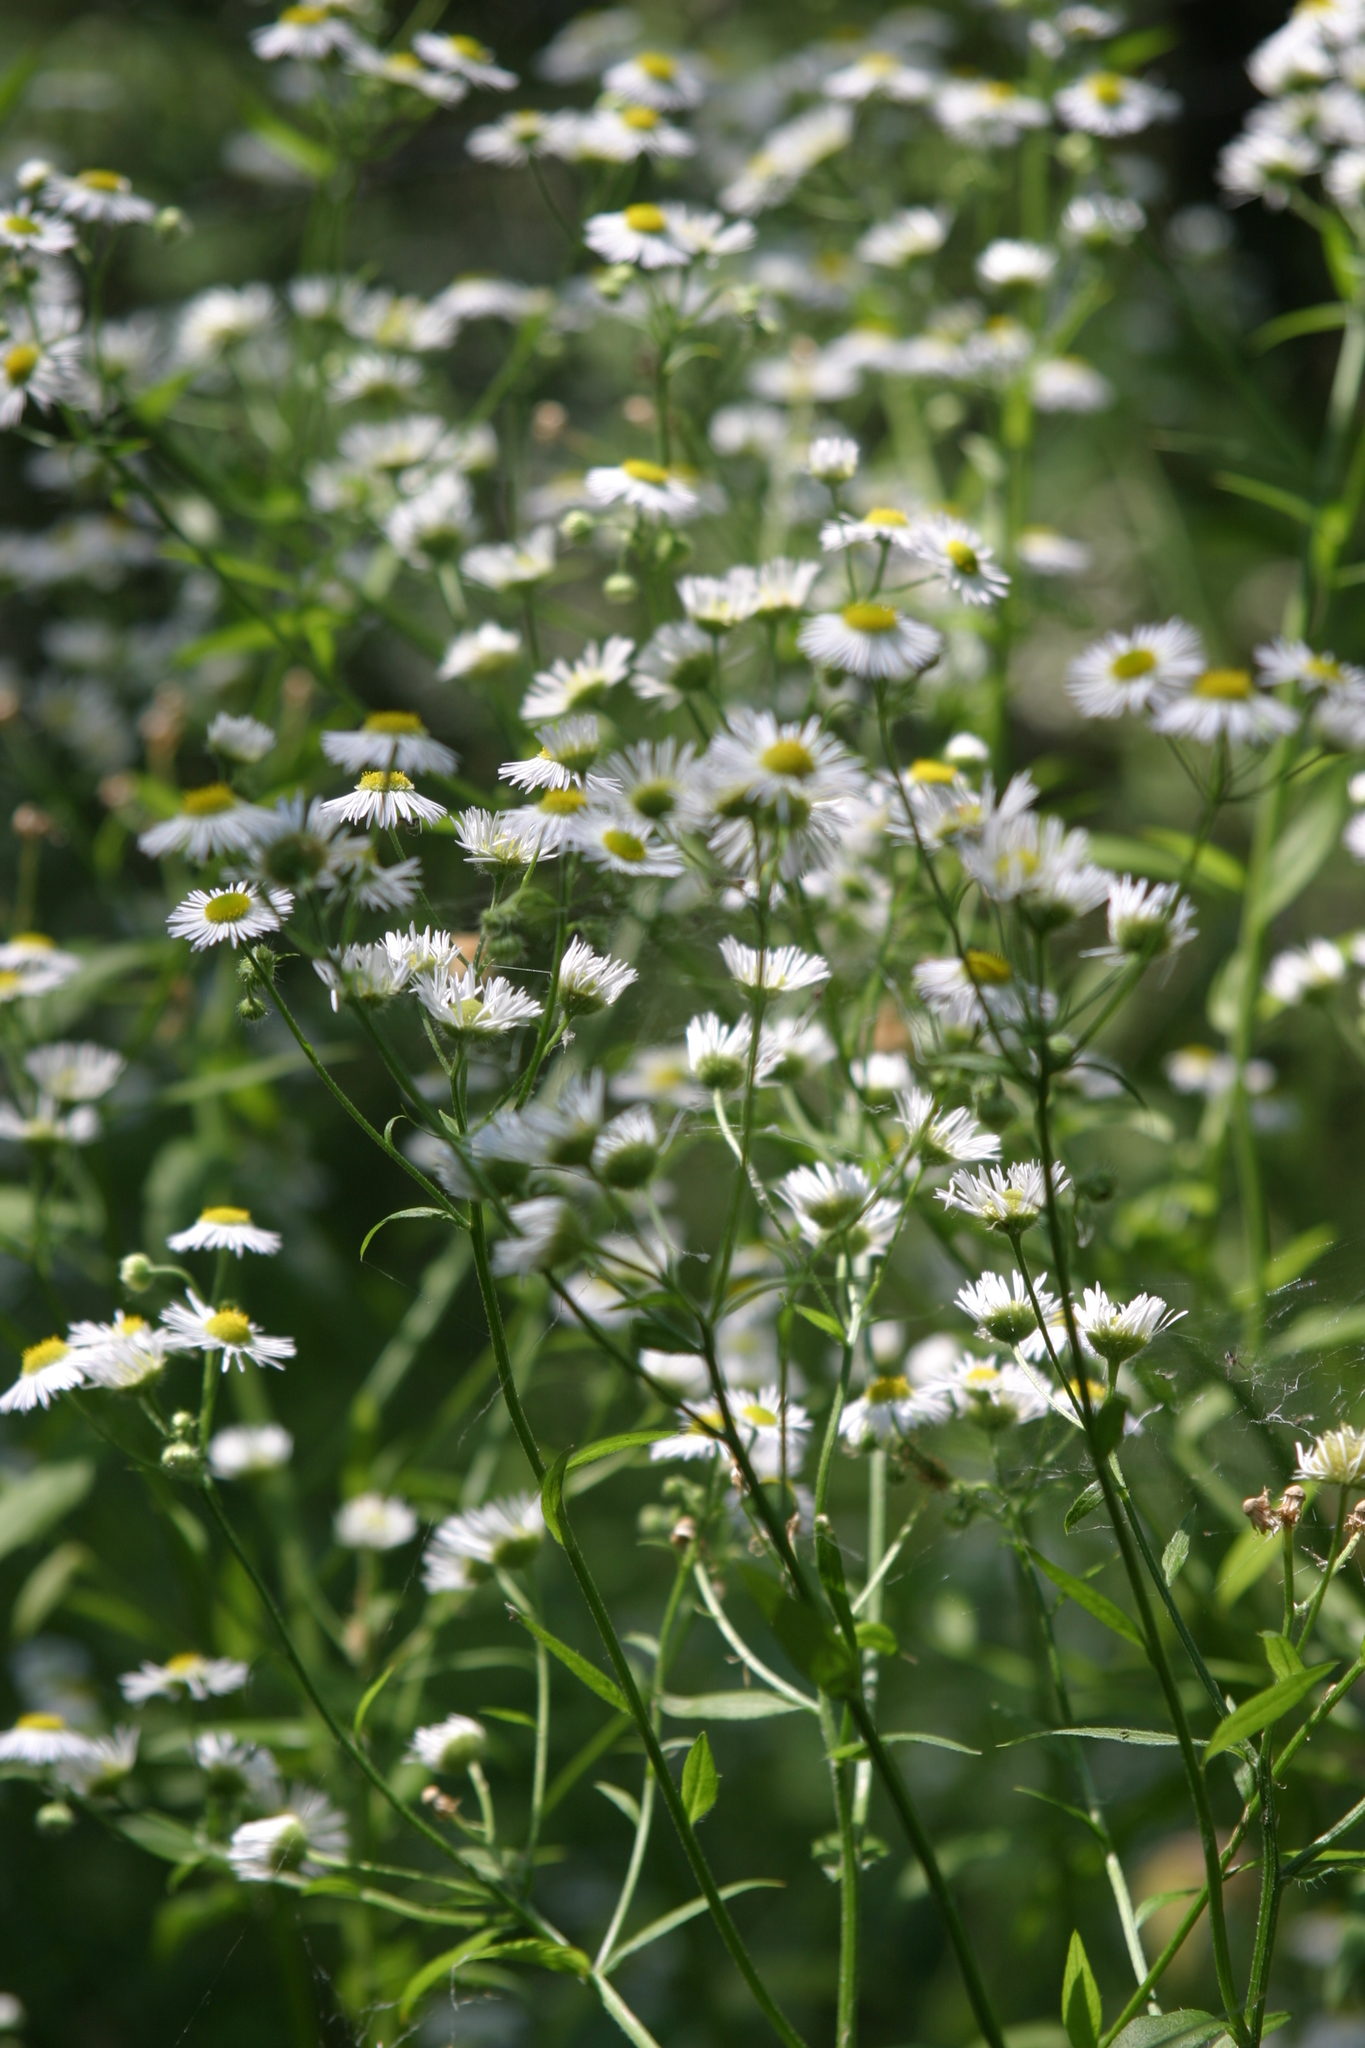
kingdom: Plantae
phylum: Tracheophyta
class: Magnoliopsida
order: Asterales
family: Asteraceae
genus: Erigeron
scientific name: Erigeron annuus
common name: Tall fleabane
